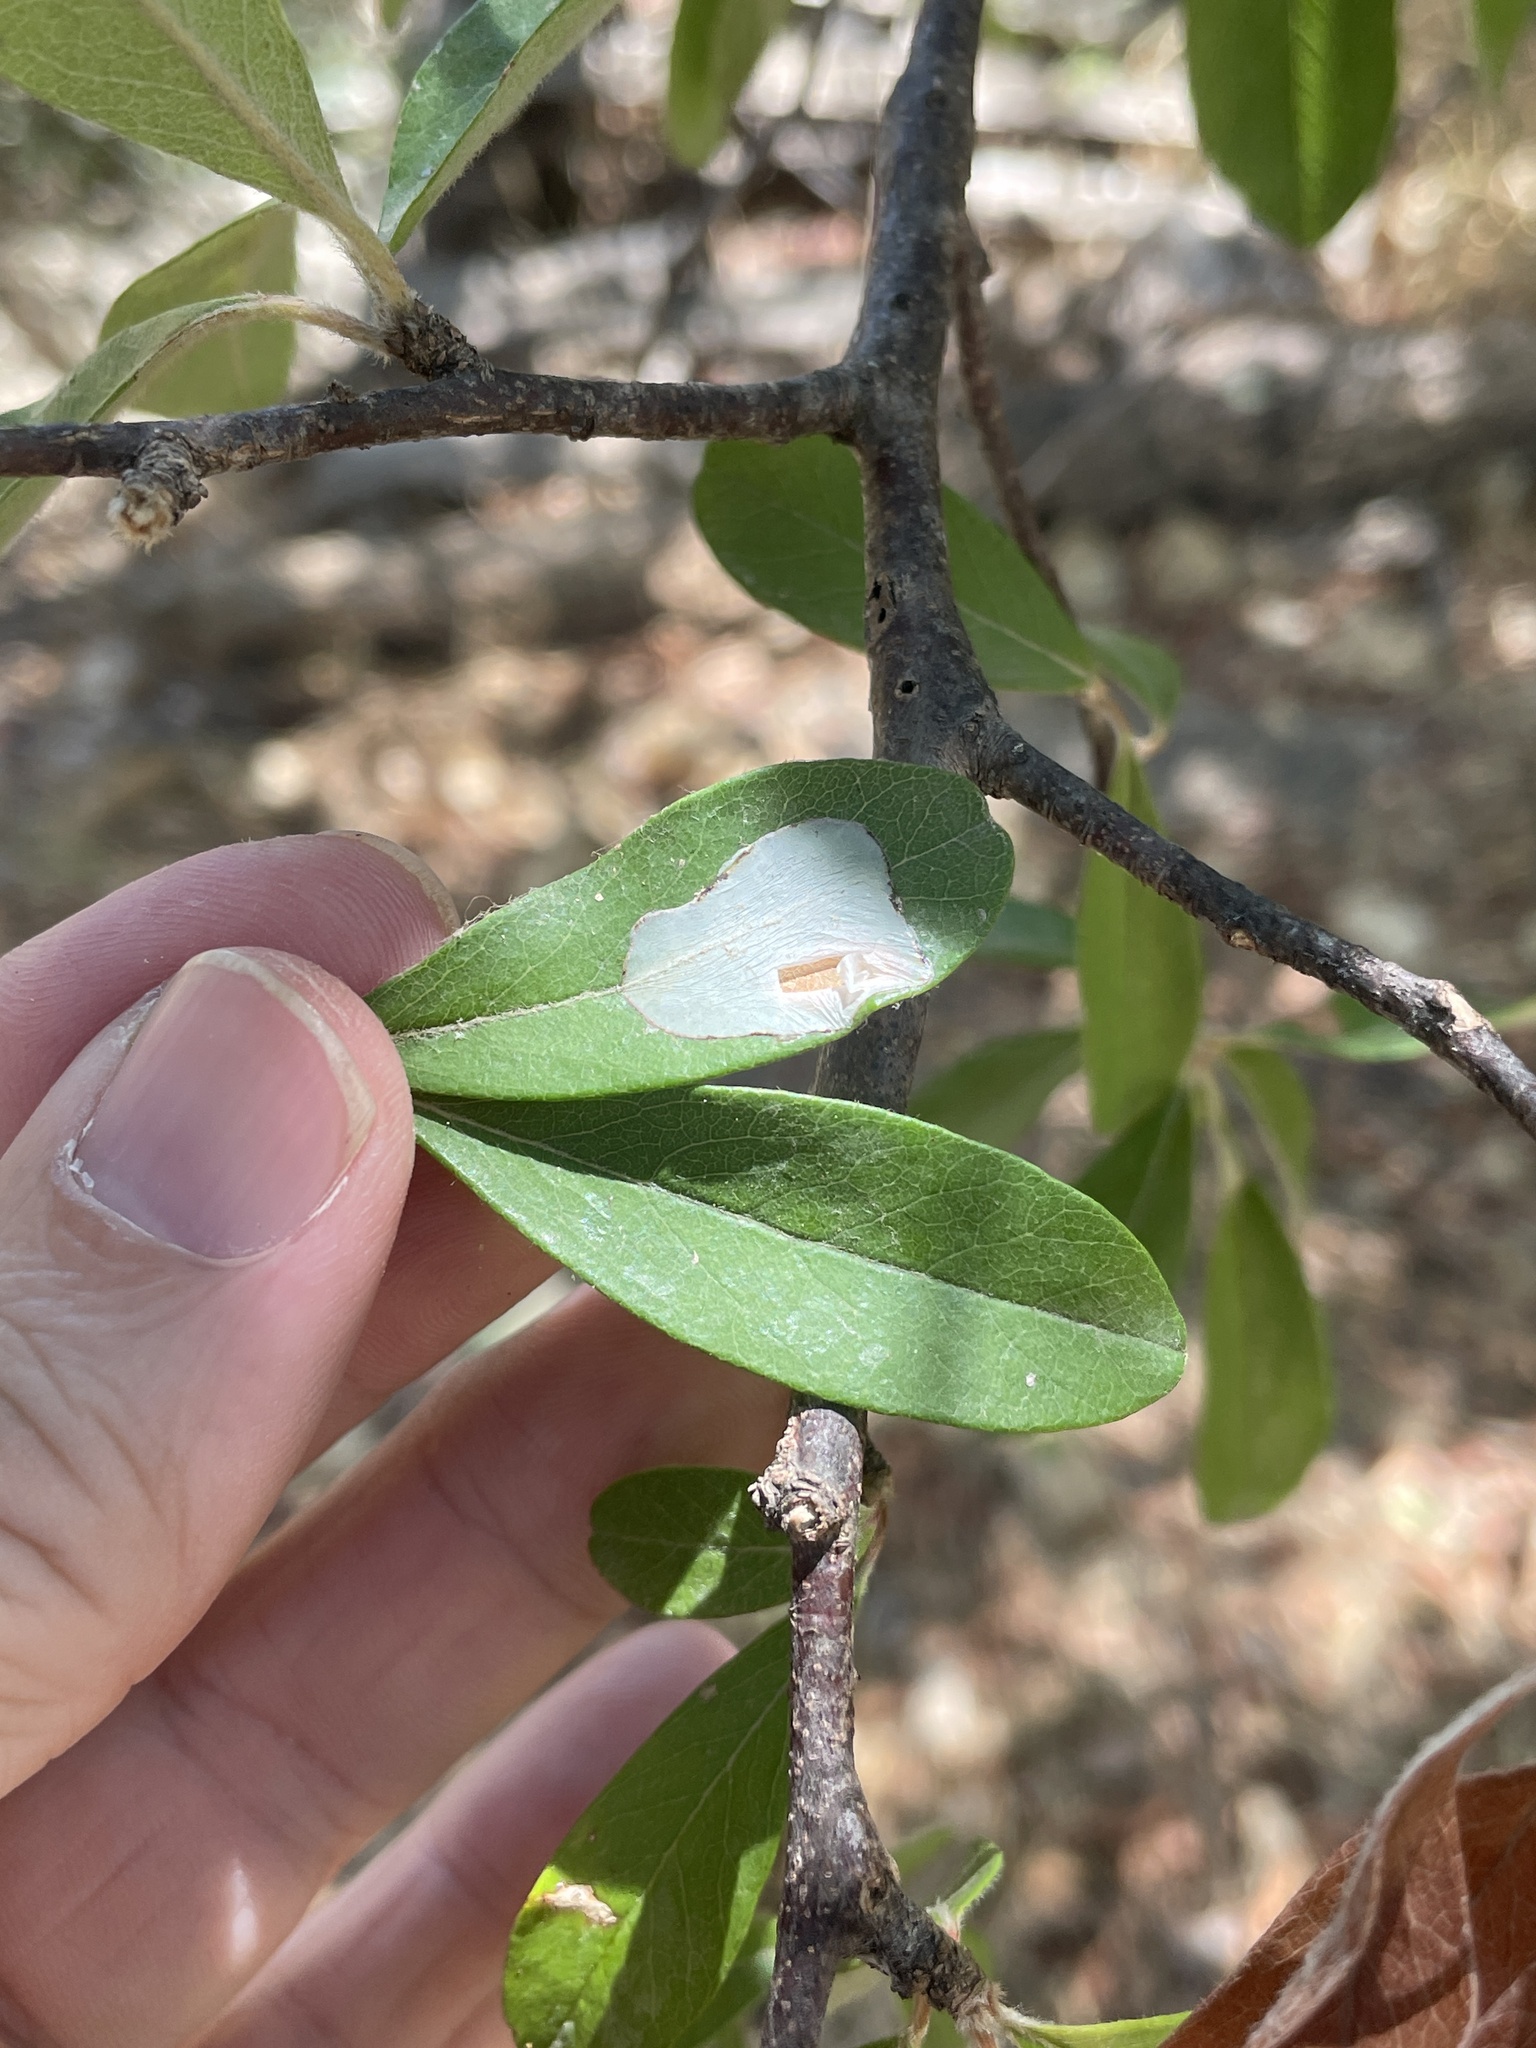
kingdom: Animalia
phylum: Arthropoda
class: Insecta
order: Lepidoptera
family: Gracillariidae
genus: Parectopa
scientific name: Parectopa bumeliella
